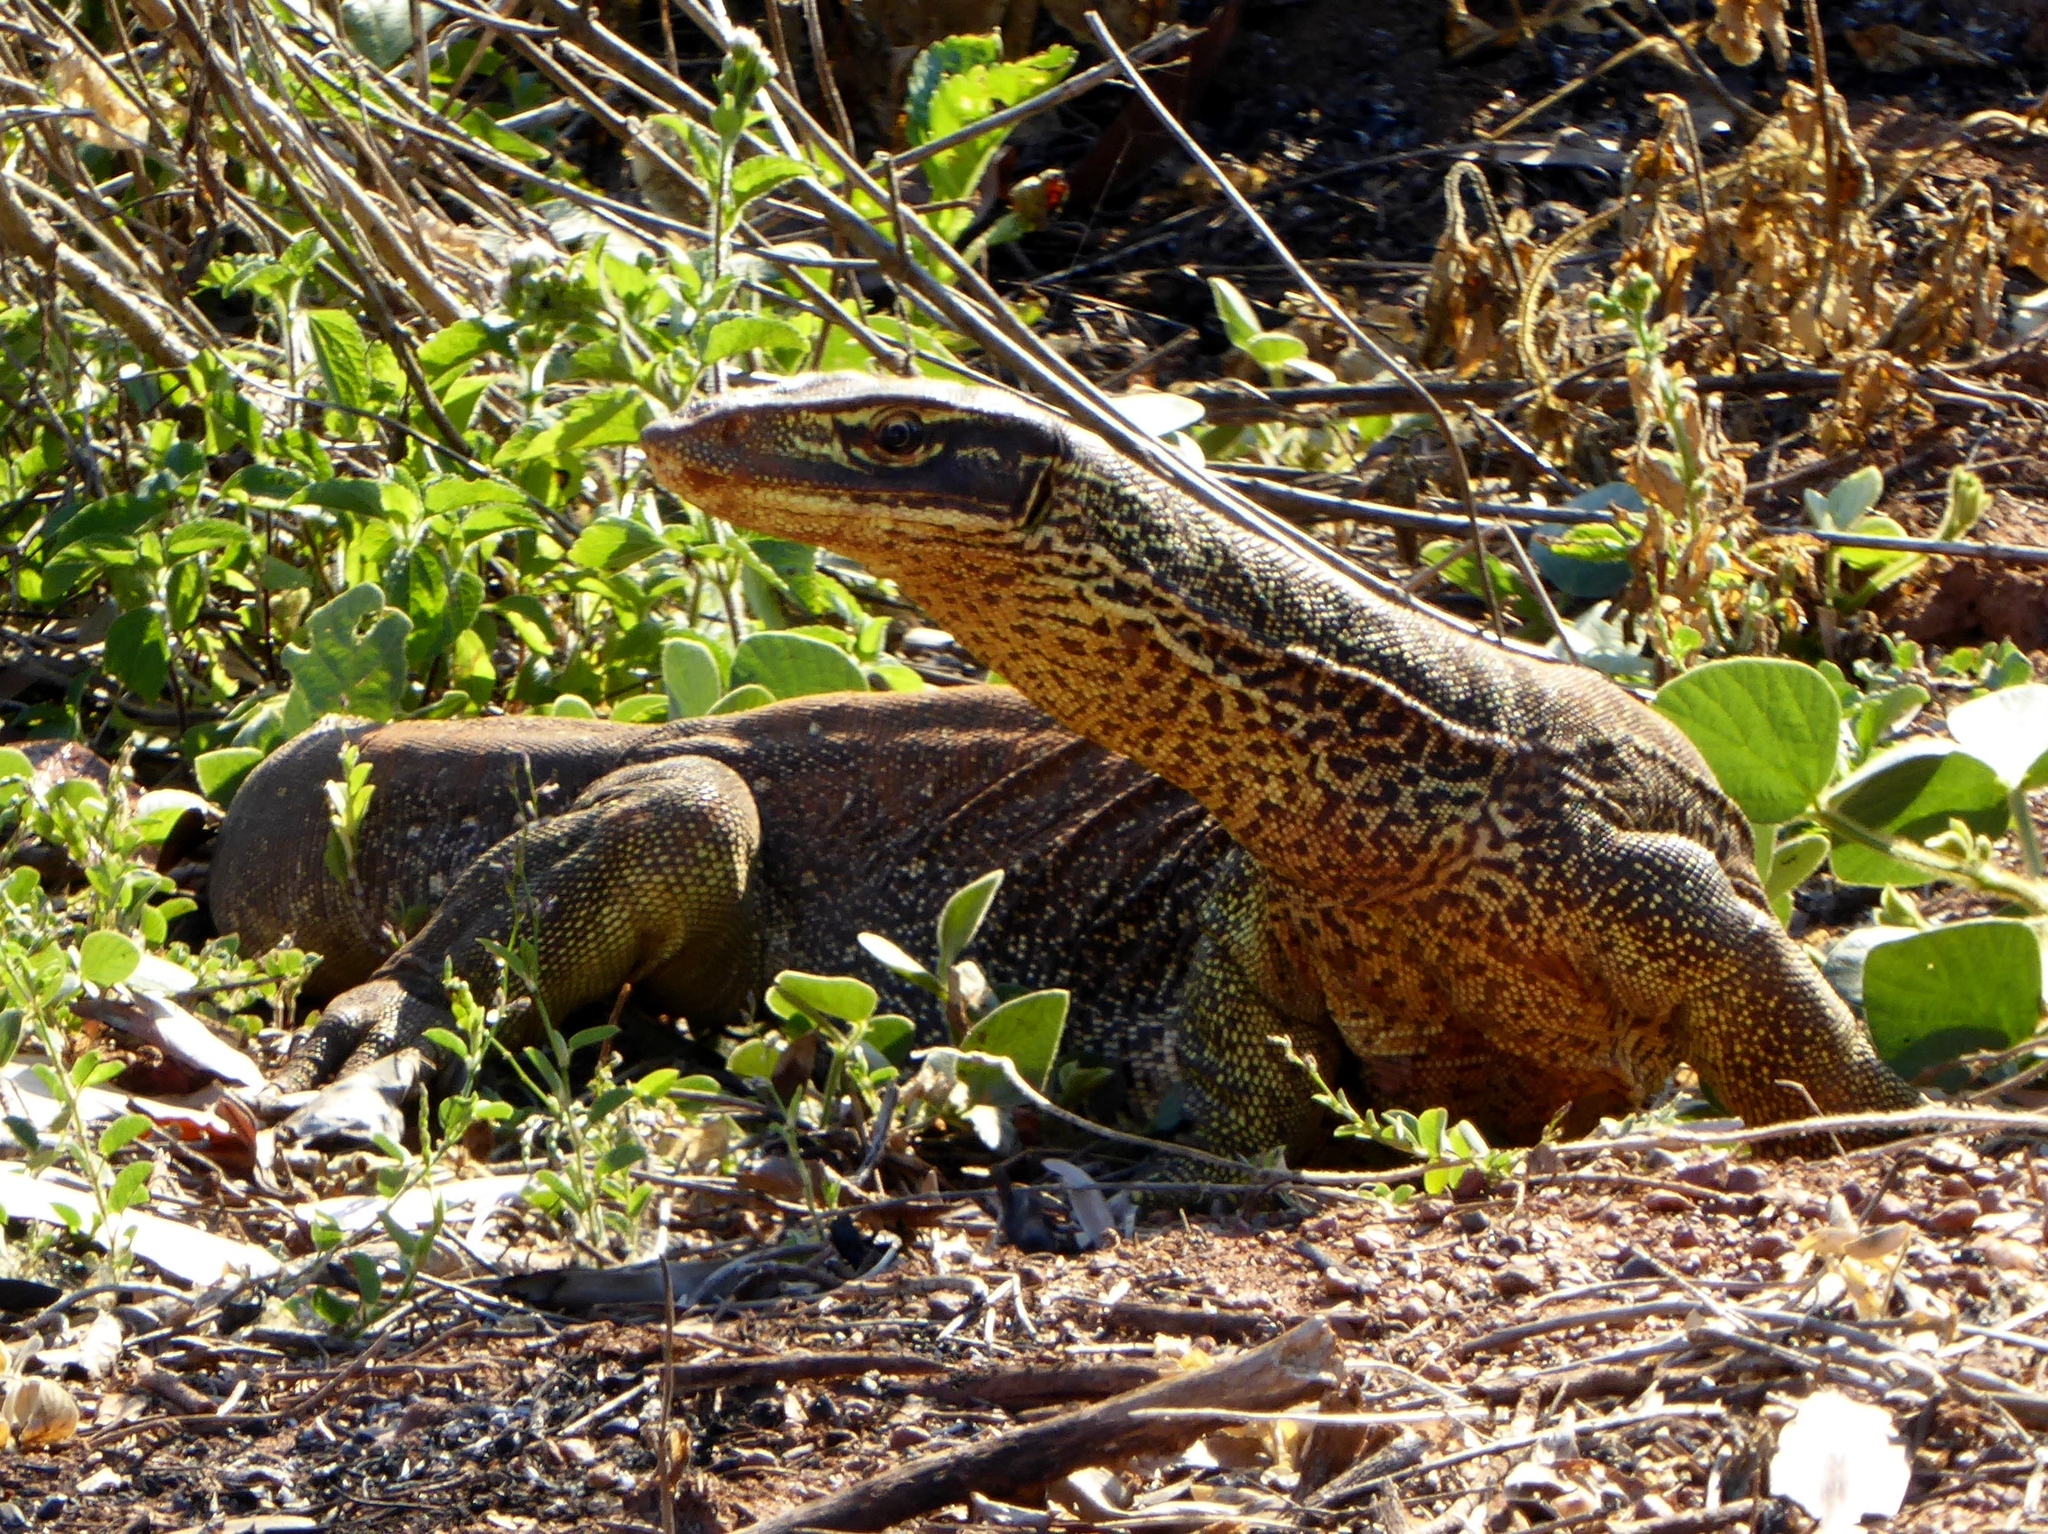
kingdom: Animalia
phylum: Chordata
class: Squamata
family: Varanidae
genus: Varanus
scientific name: Varanus panoptes
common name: Yellow-spotted monitor
